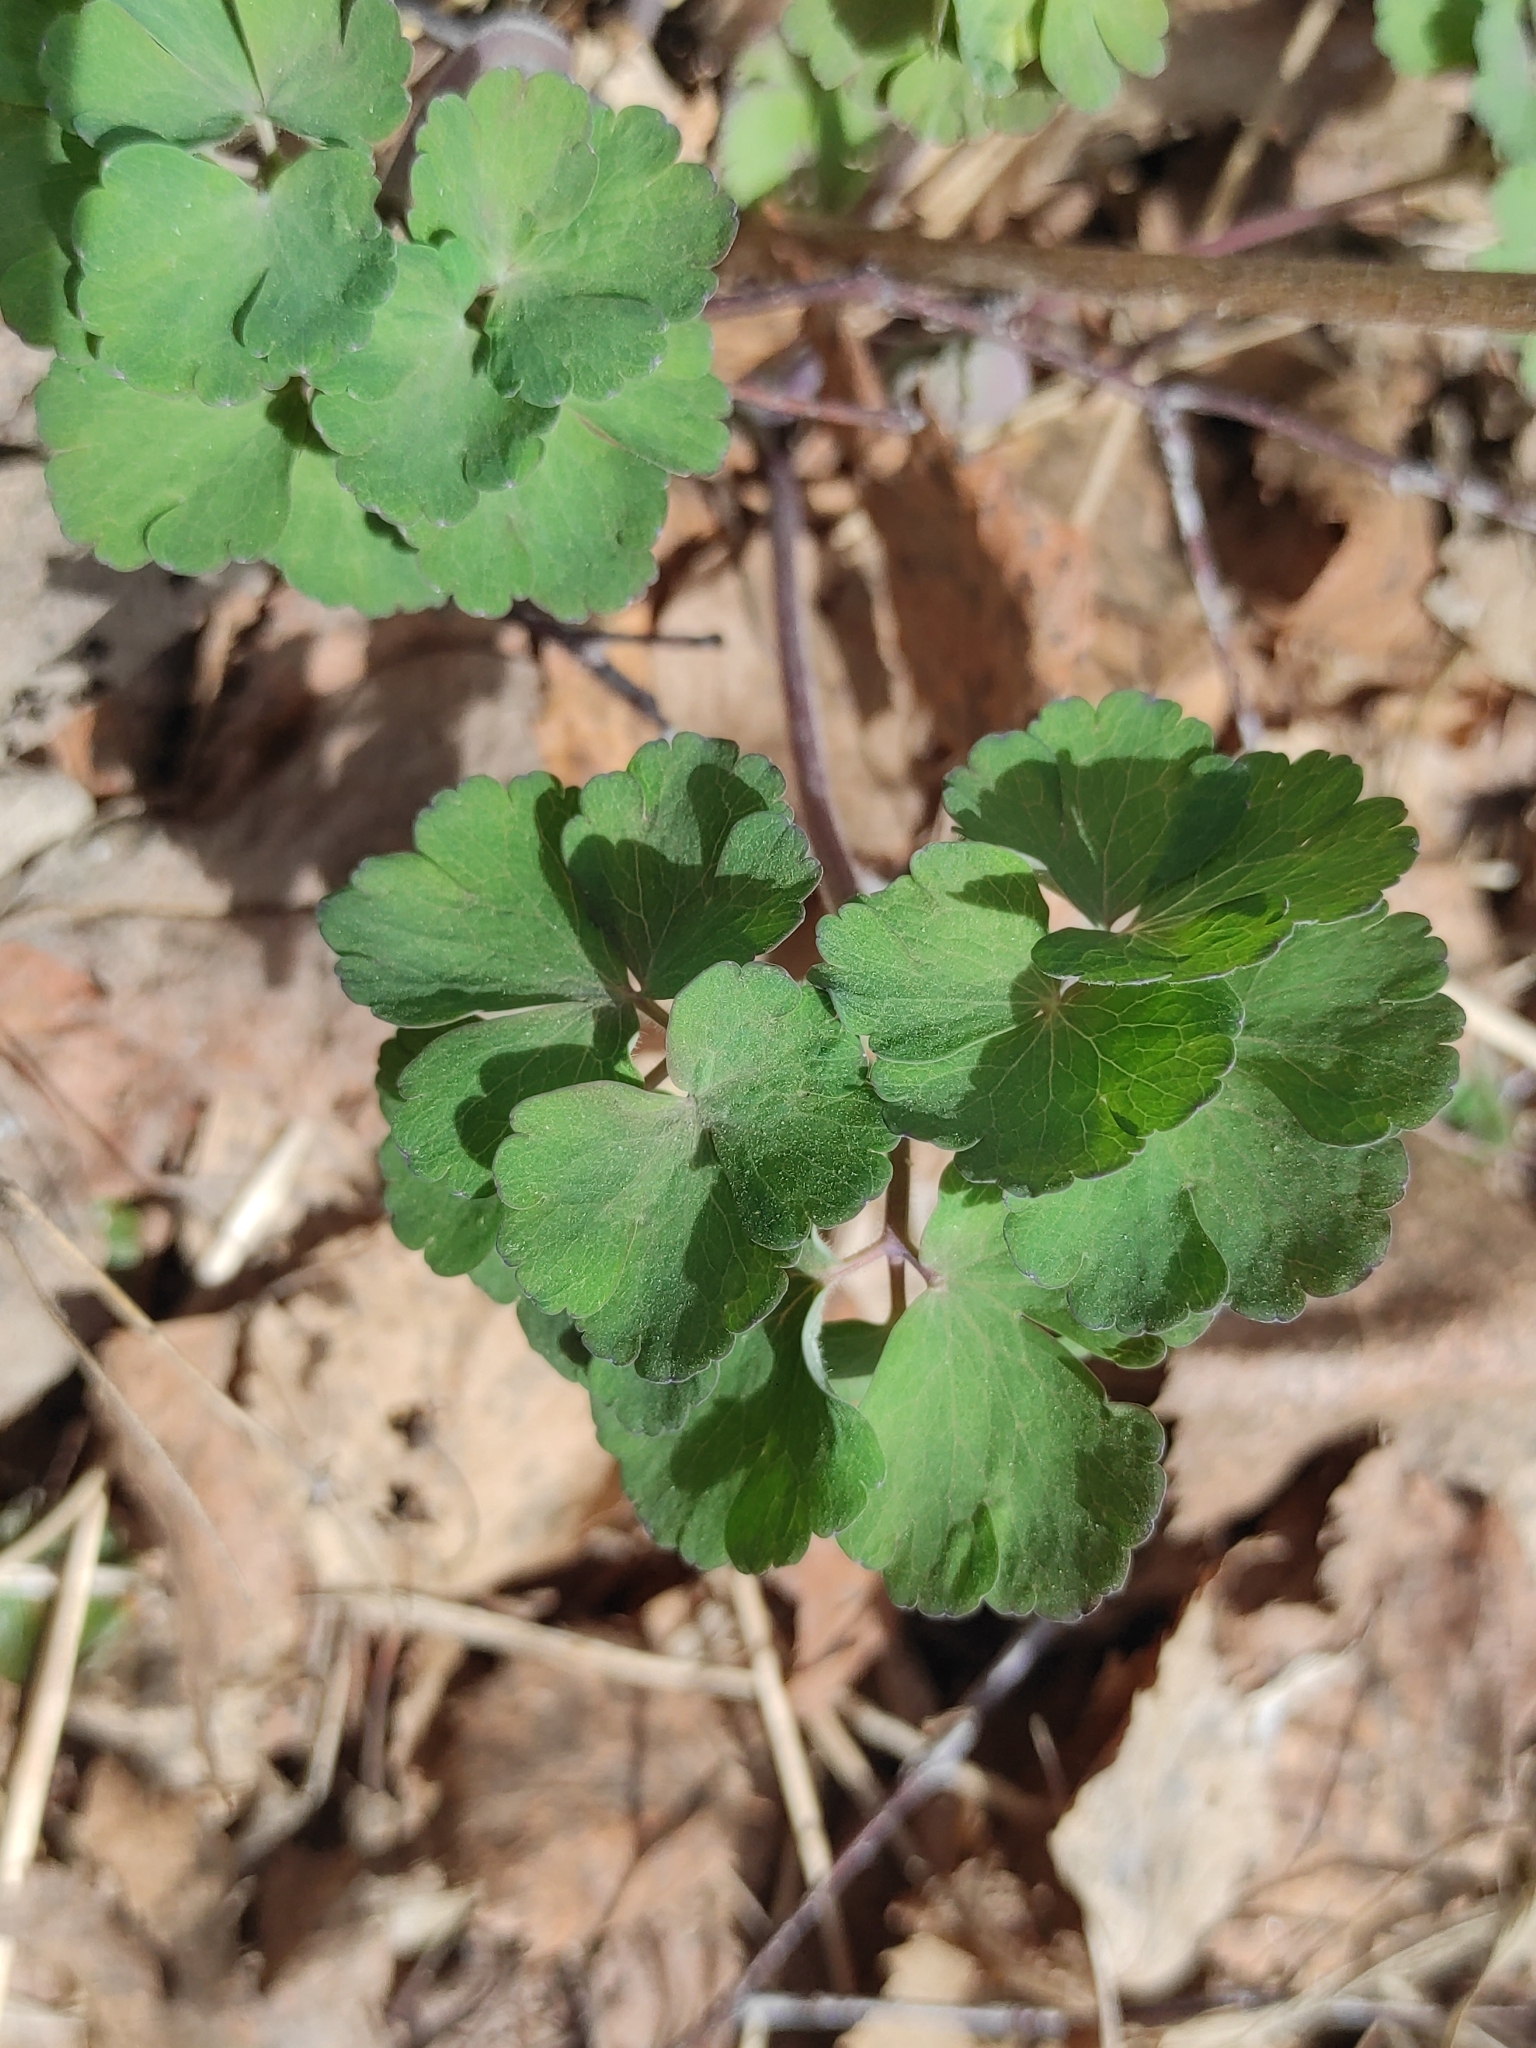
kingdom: Plantae
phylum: Tracheophyta
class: Magnoliopsida
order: Ranunculales
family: Ranunculaceae
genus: Aquilegia
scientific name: Aquilegia vulgaris
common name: Columbine
